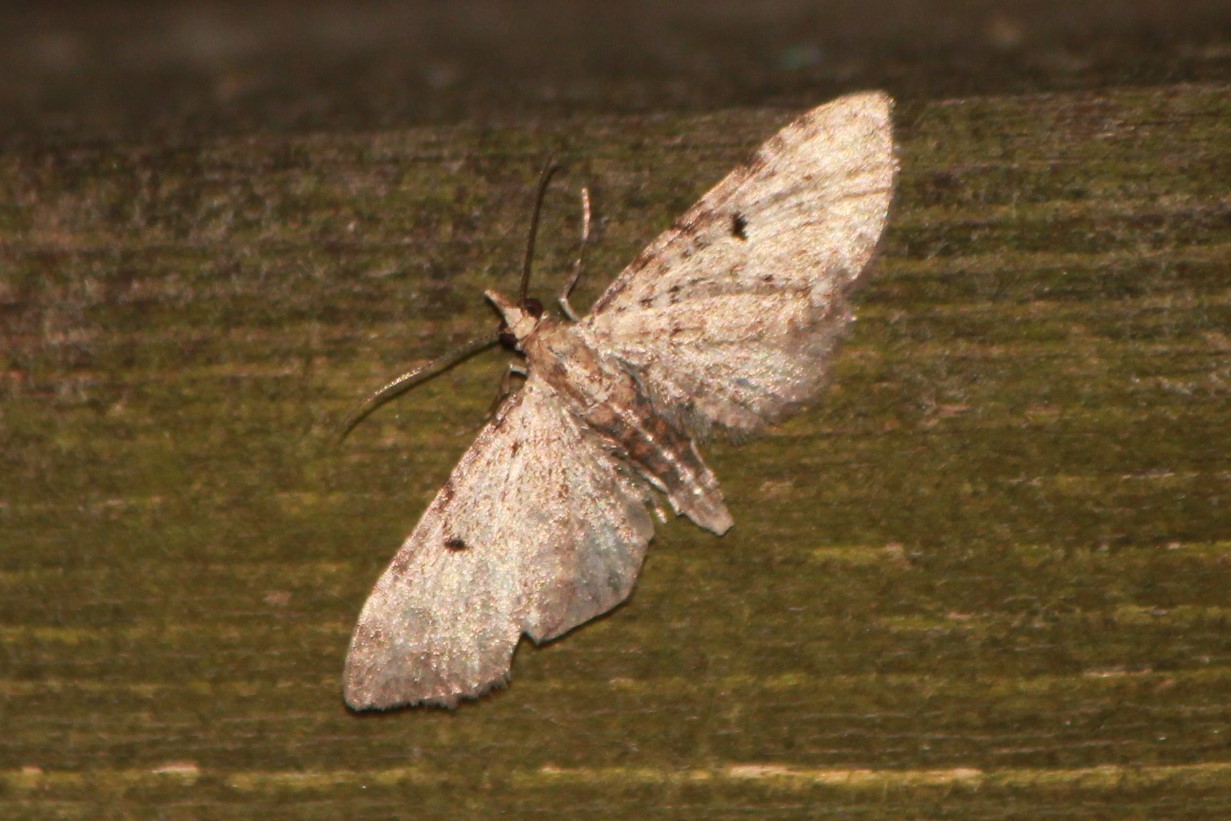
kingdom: Animalia
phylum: Arthropoda
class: Insecta
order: Lepidoptera
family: Geometridae
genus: Eupithecia
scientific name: Eupithecia miserulata
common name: Common eupithecia
